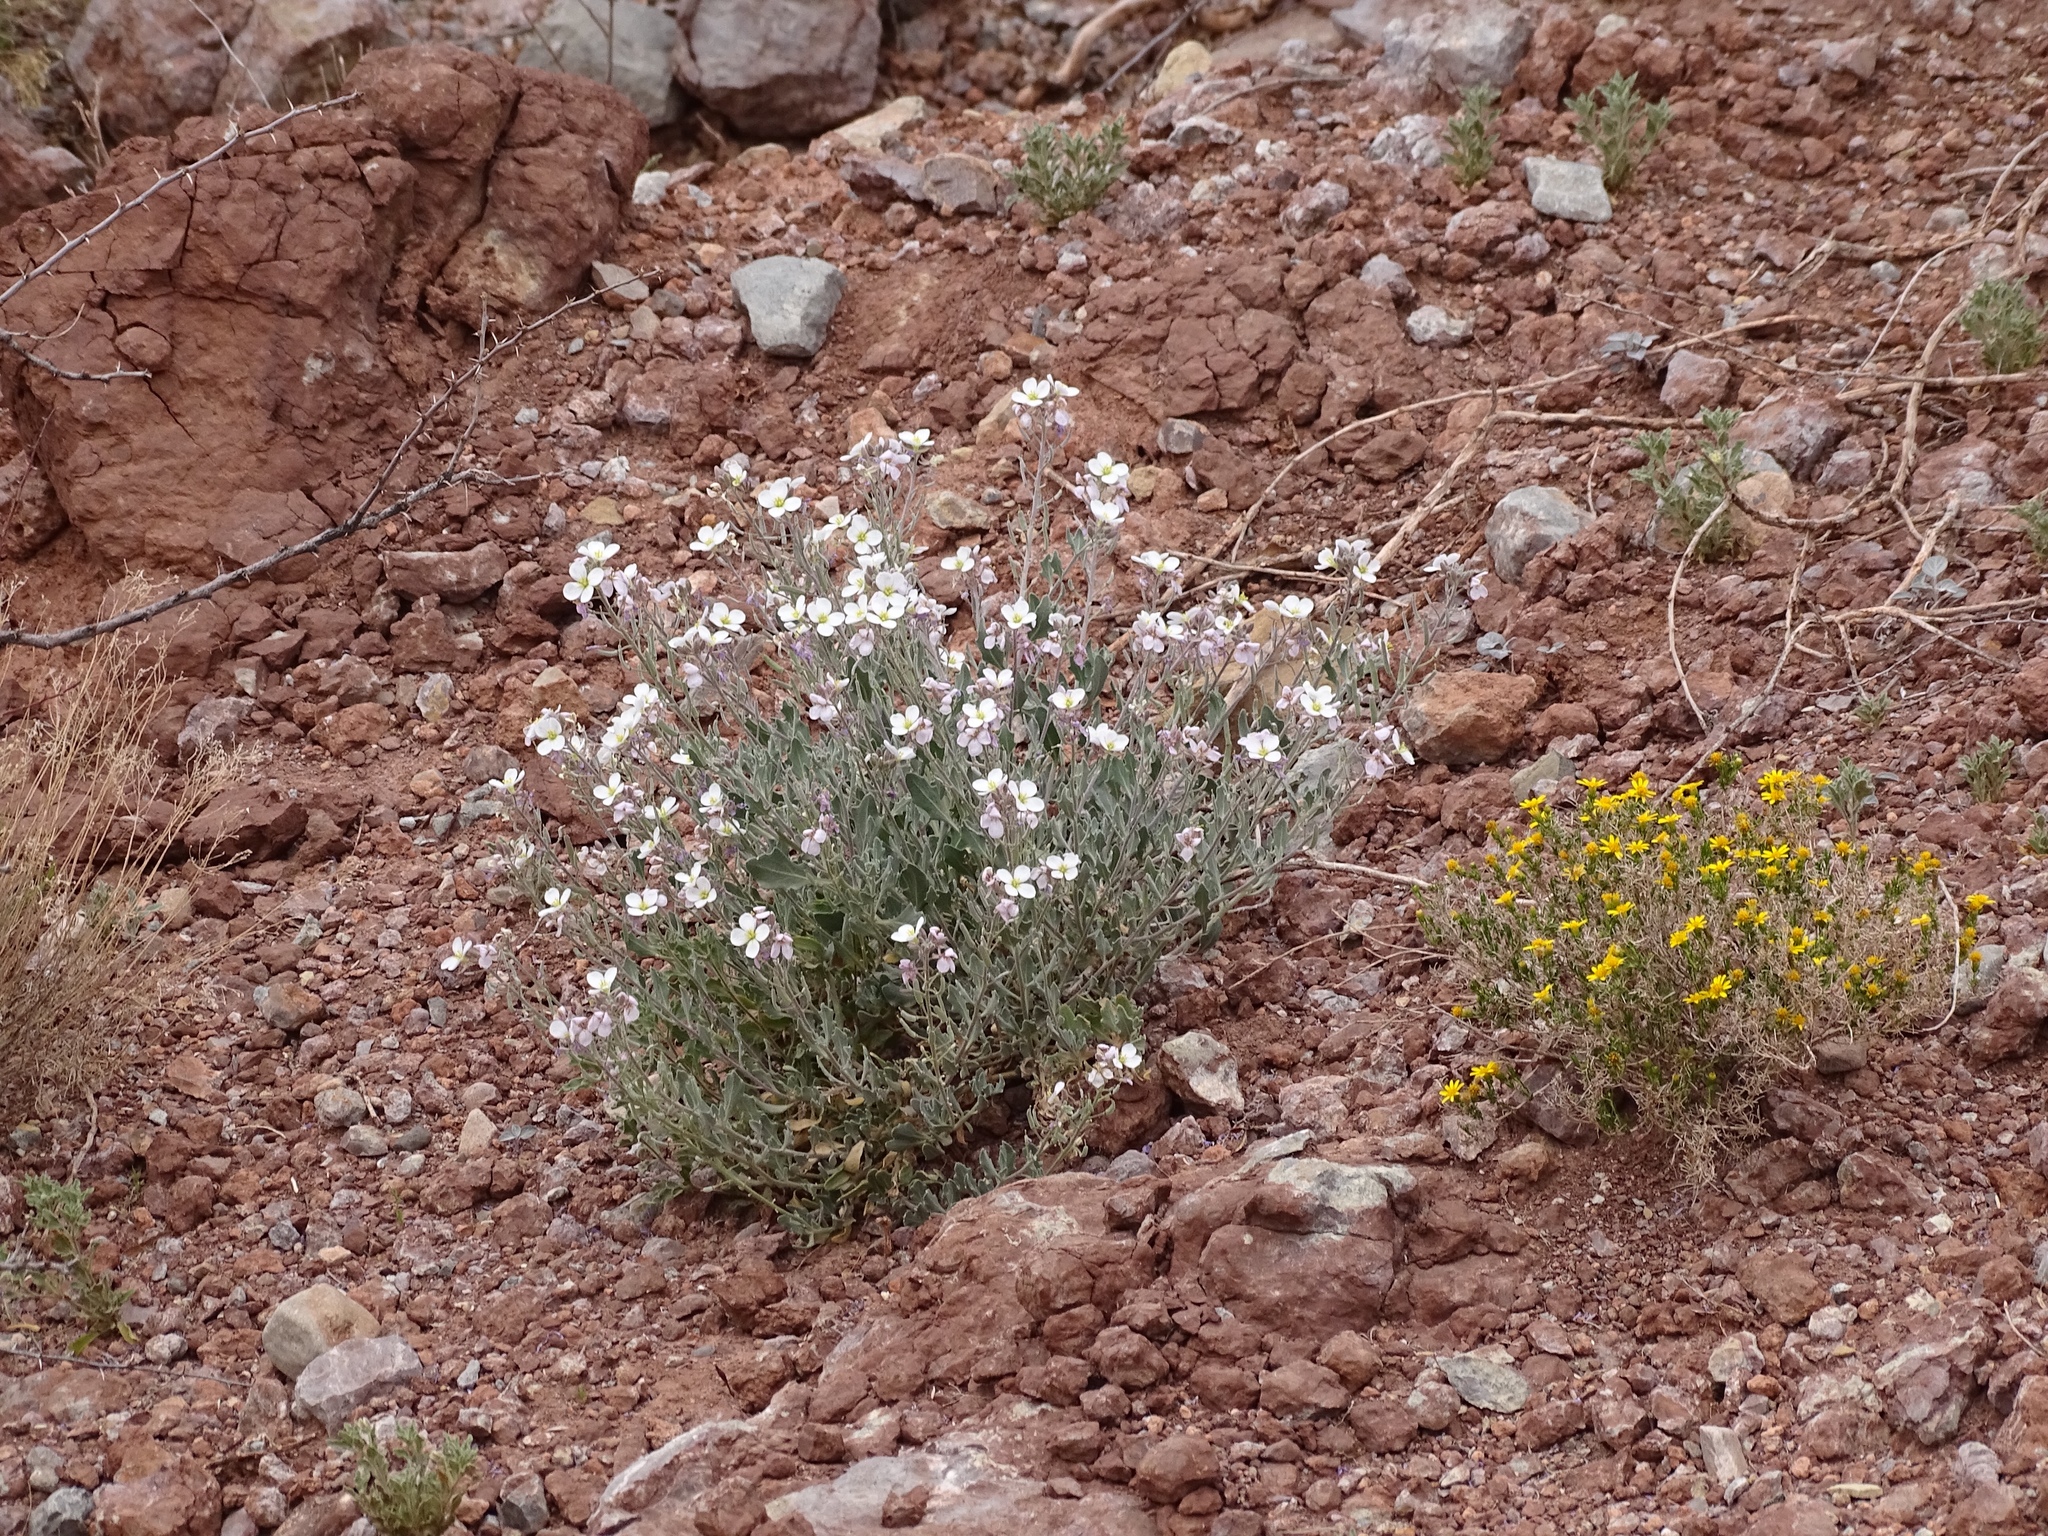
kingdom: Plantae
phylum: Tracheophyta
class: Magnoliopsida
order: Brassicales
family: Brassicaceae
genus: Nerisyrenia
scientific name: Nerisyrenia camporum
